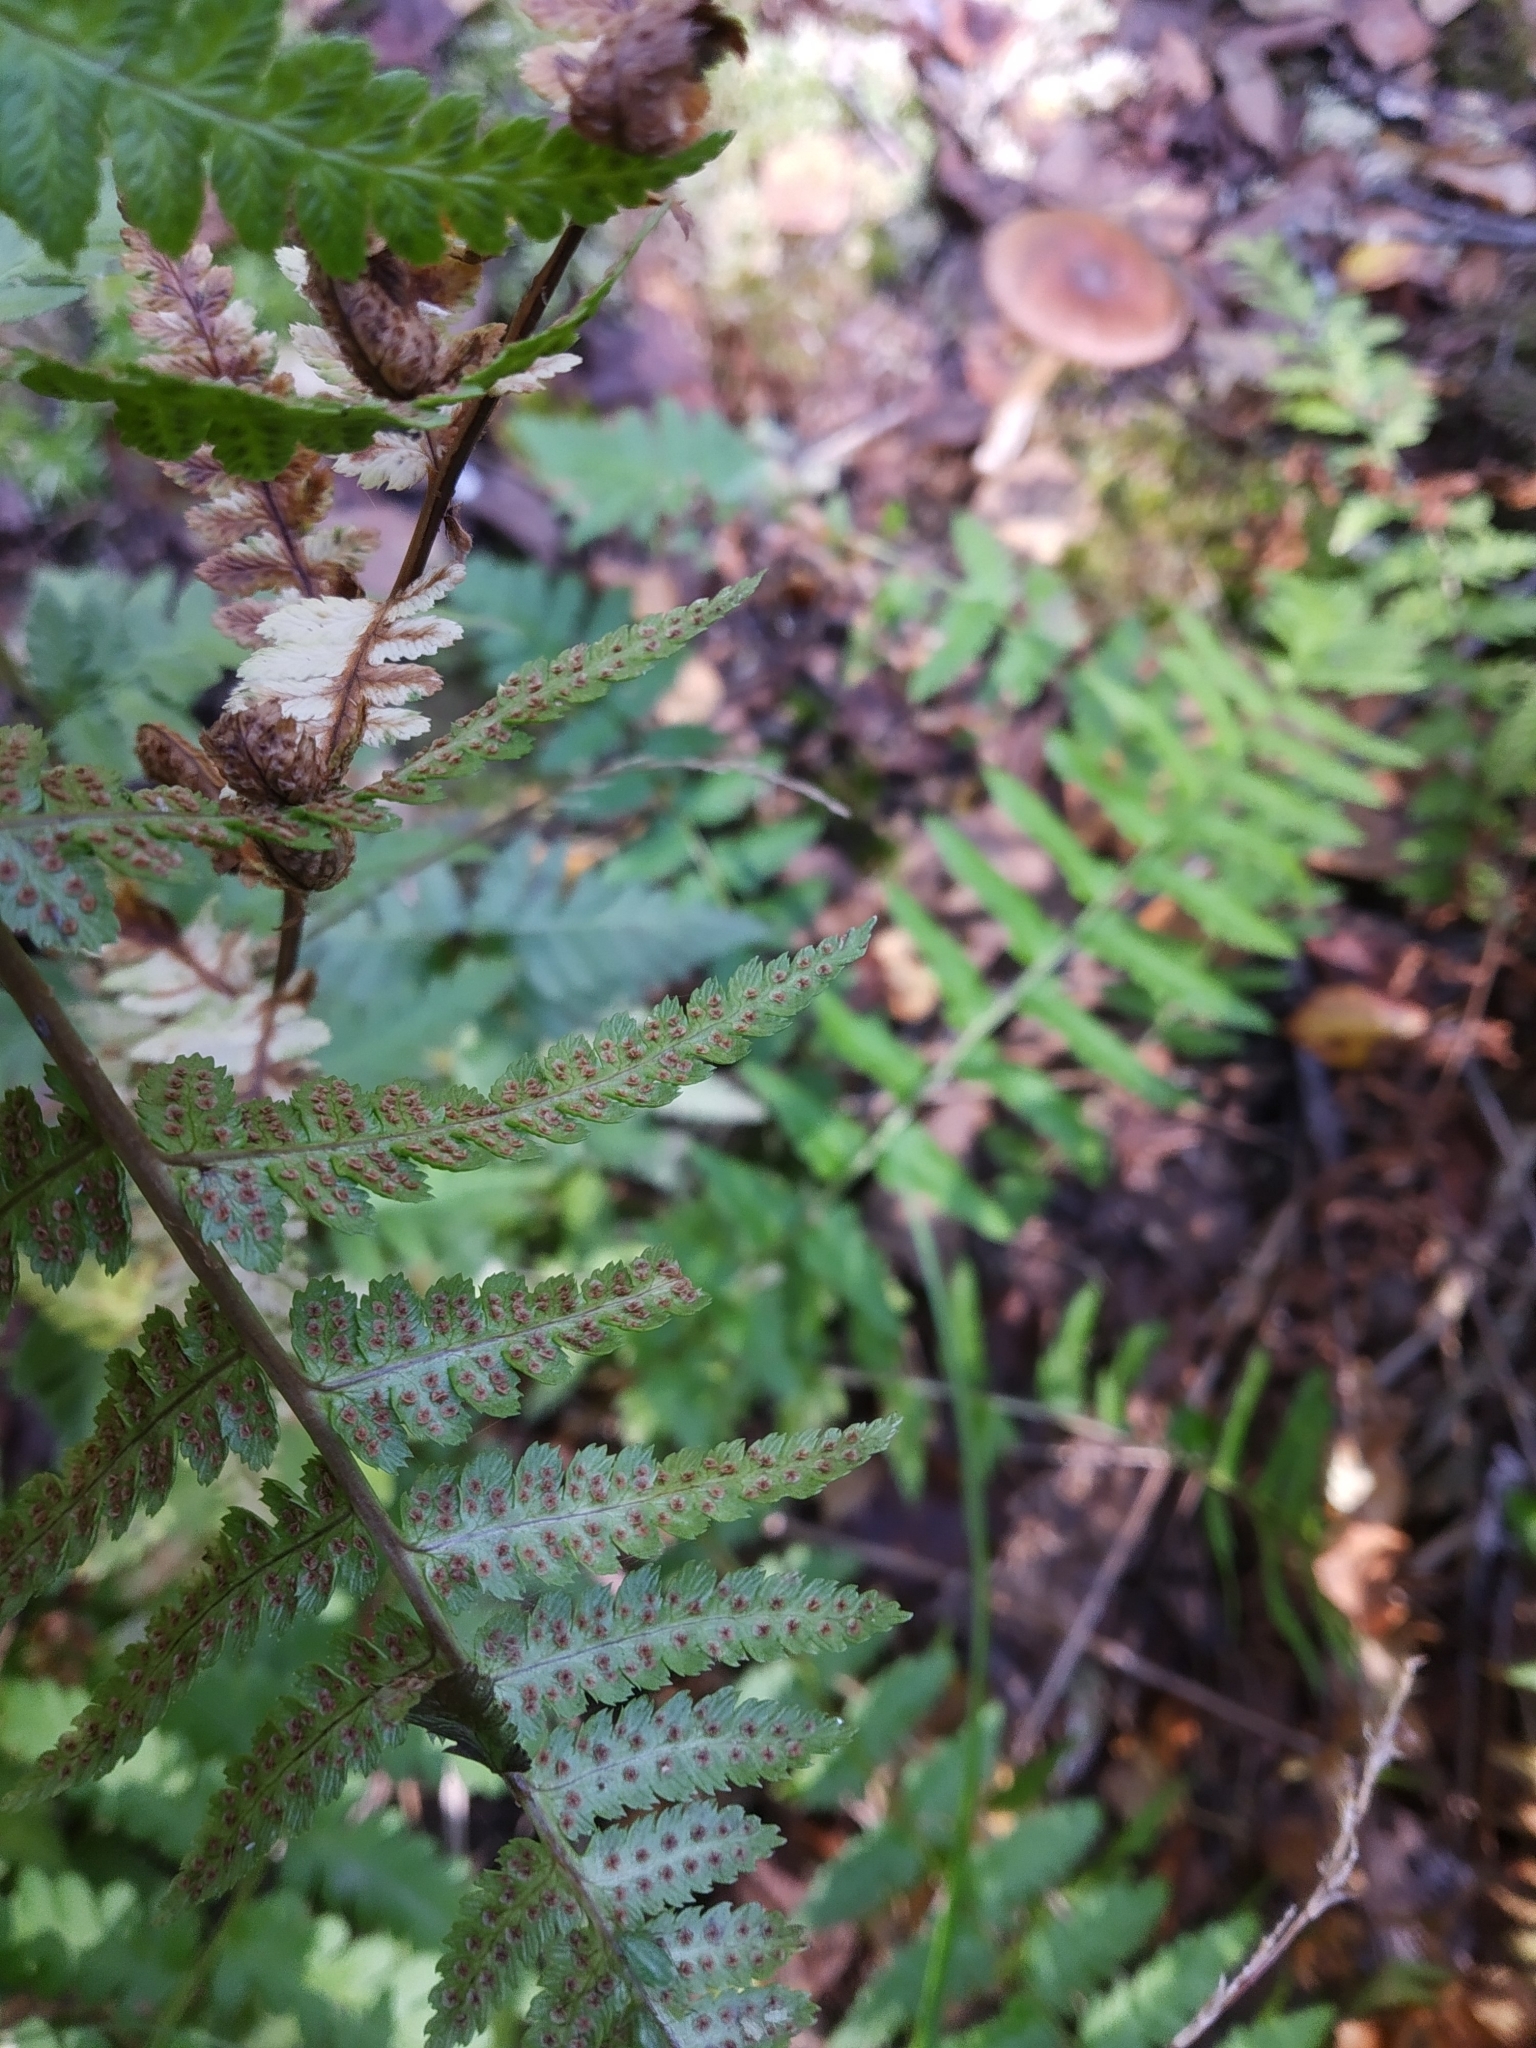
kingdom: Plantae
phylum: Tracheophyta
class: Polypodiopsida
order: Polypodiales
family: Dryopteridaceae
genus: Dryopteris
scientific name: Dryopteris cristata
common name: Crested wood fern
